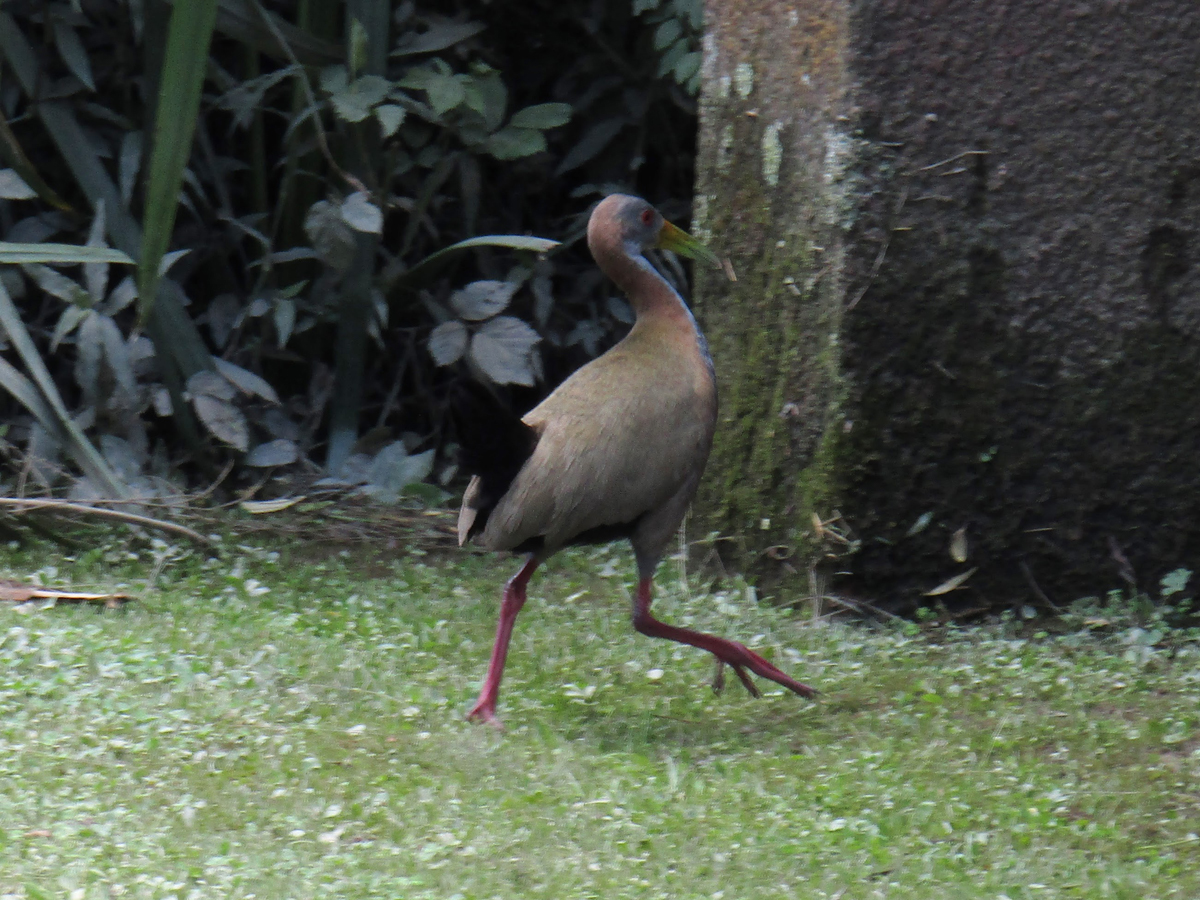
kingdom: Animalia
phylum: Chordata
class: Aves
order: Gruiformes
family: Rallidae
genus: Aramides
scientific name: Aramides ypecaha
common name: Giant wood rail
